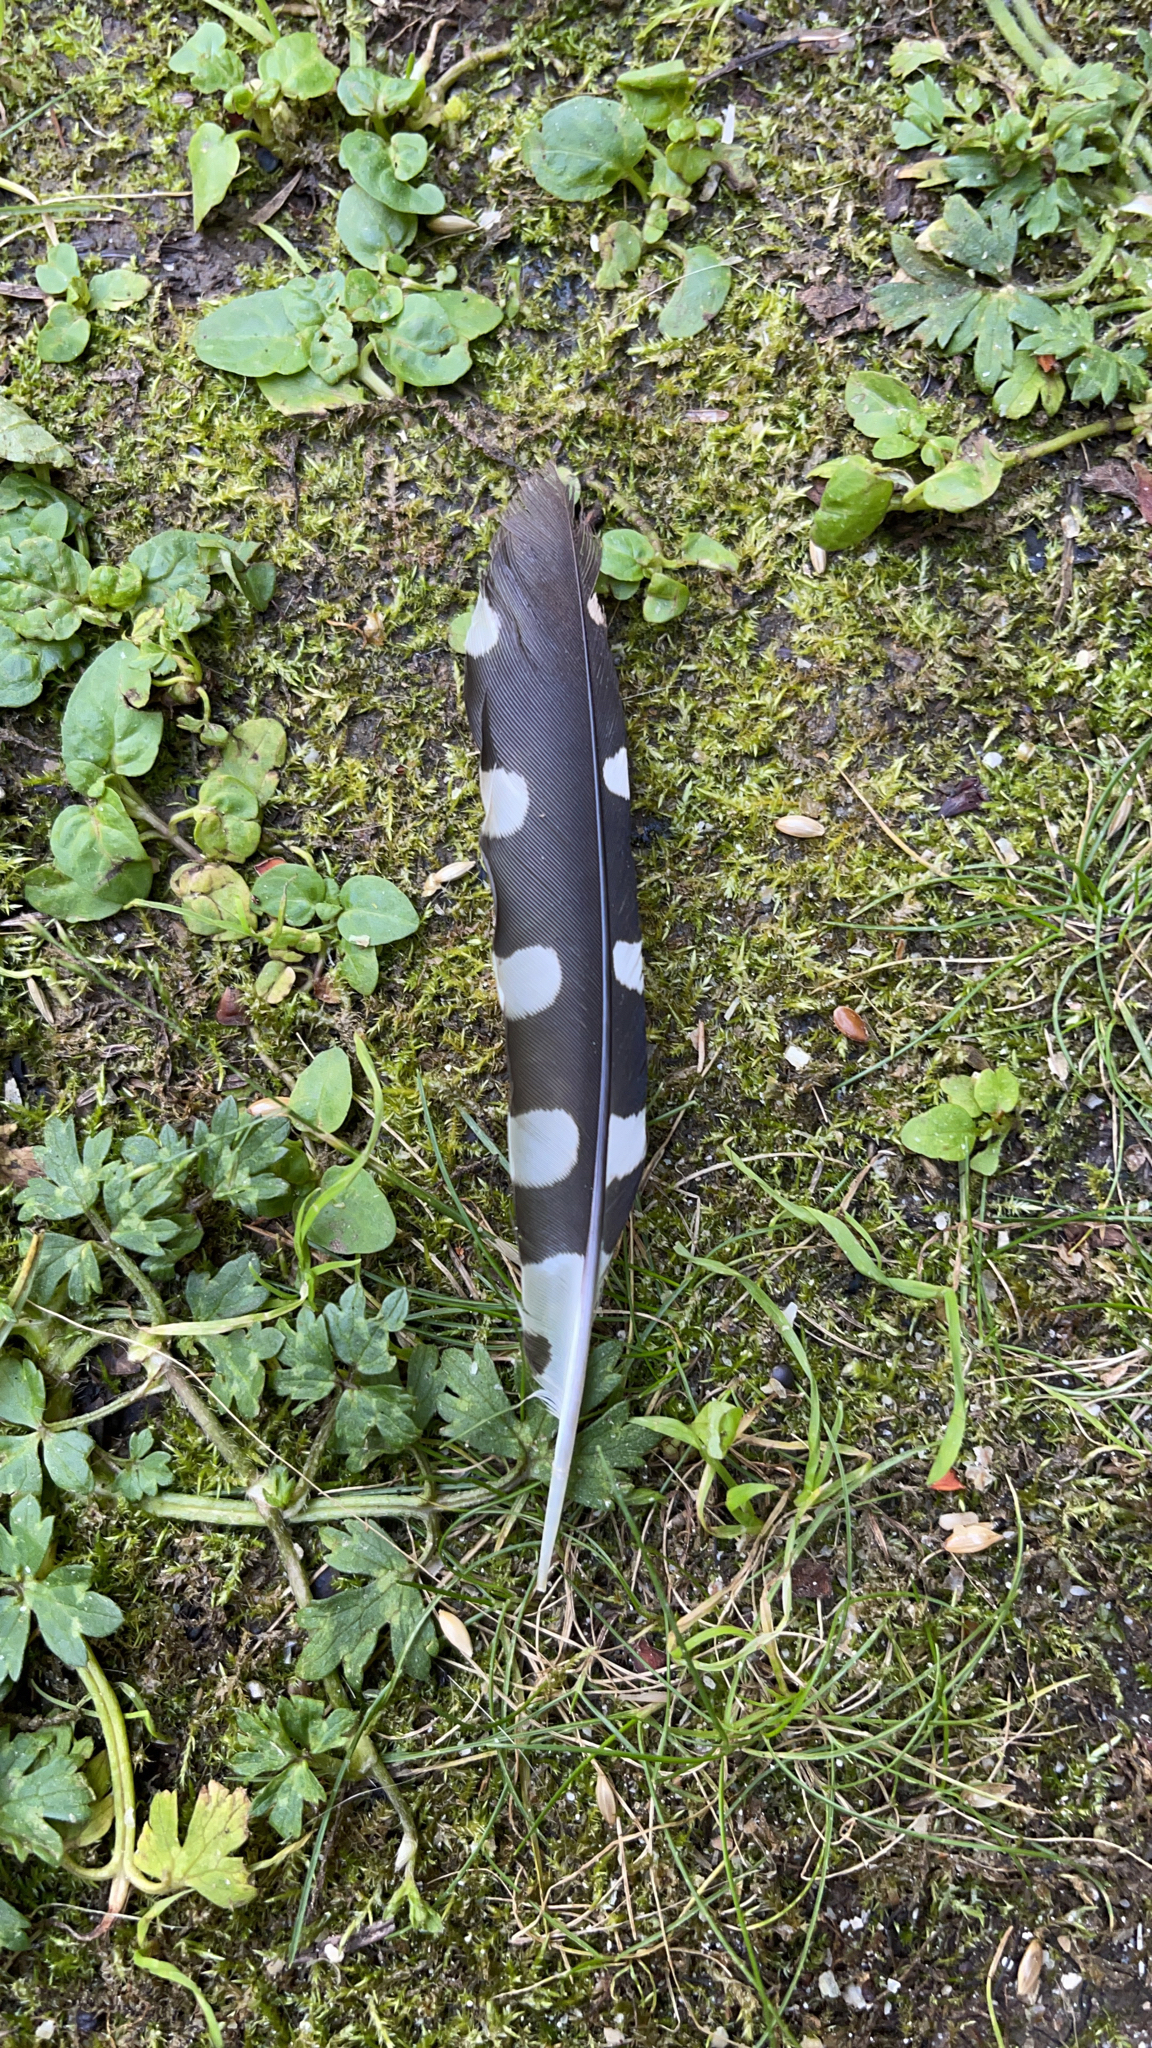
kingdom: Animalia
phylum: Chordata
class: Aves
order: Piciformes
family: Picidae
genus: Dendrocopos
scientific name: Dendrocopos major
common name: Great spotted woodpecker
